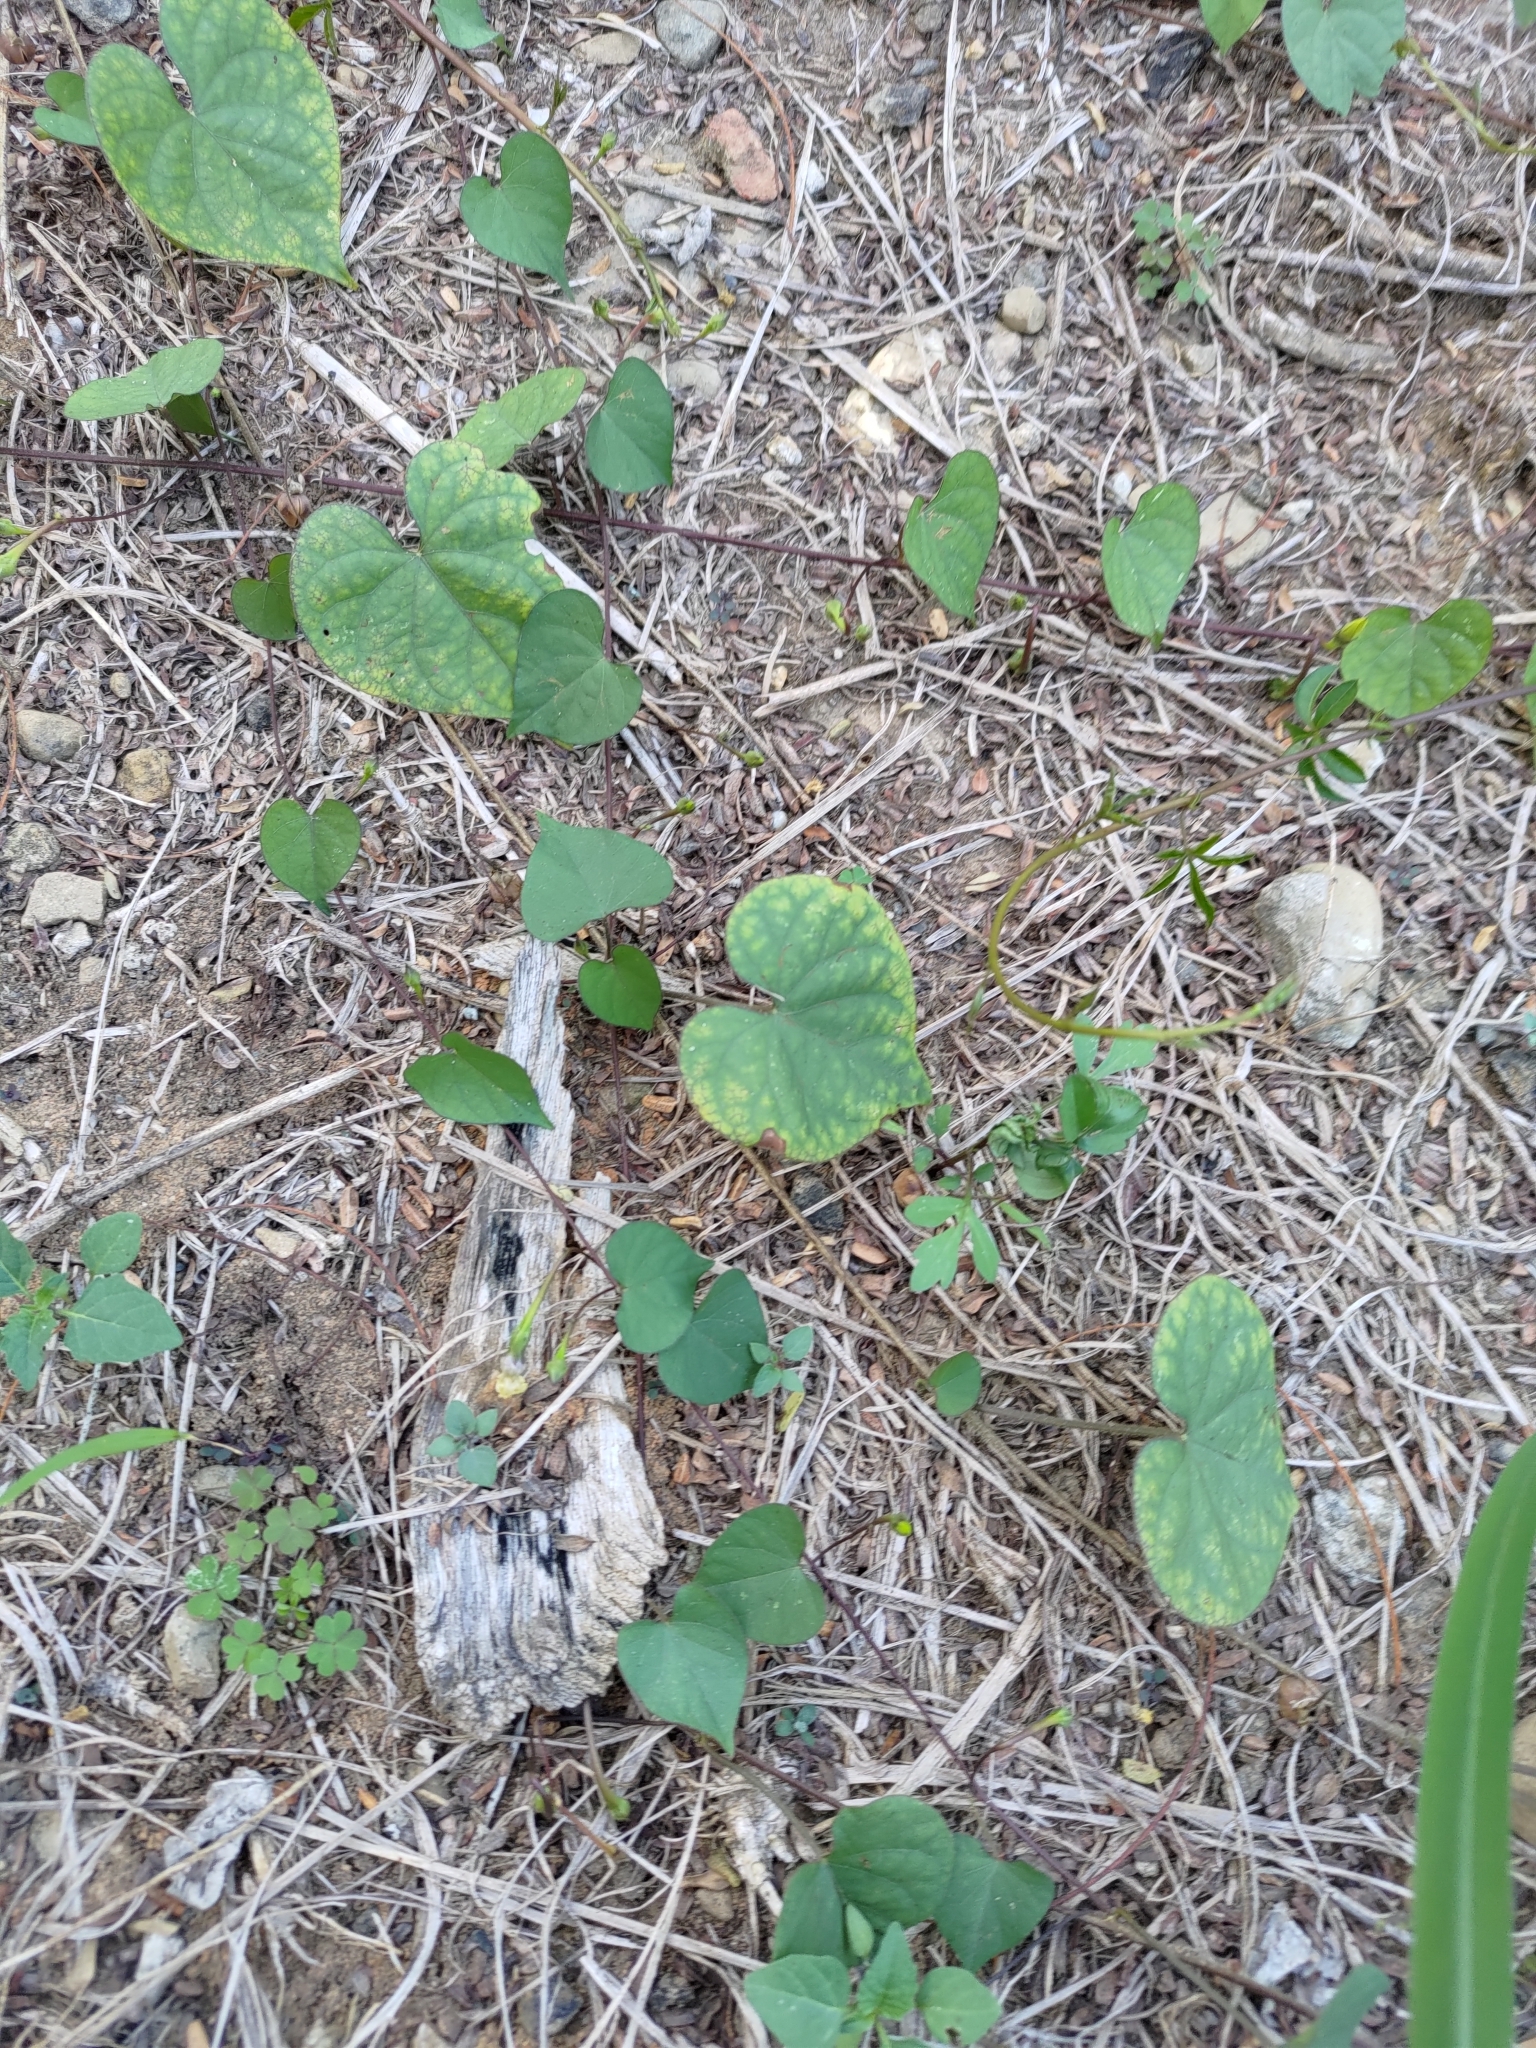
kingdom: Plantae
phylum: Tracheophyta
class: Magnoliopsida
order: Solanales
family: Convolvulaceae
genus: Ipomoea
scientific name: Ipomoea obscura
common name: Obscure morning-glory
